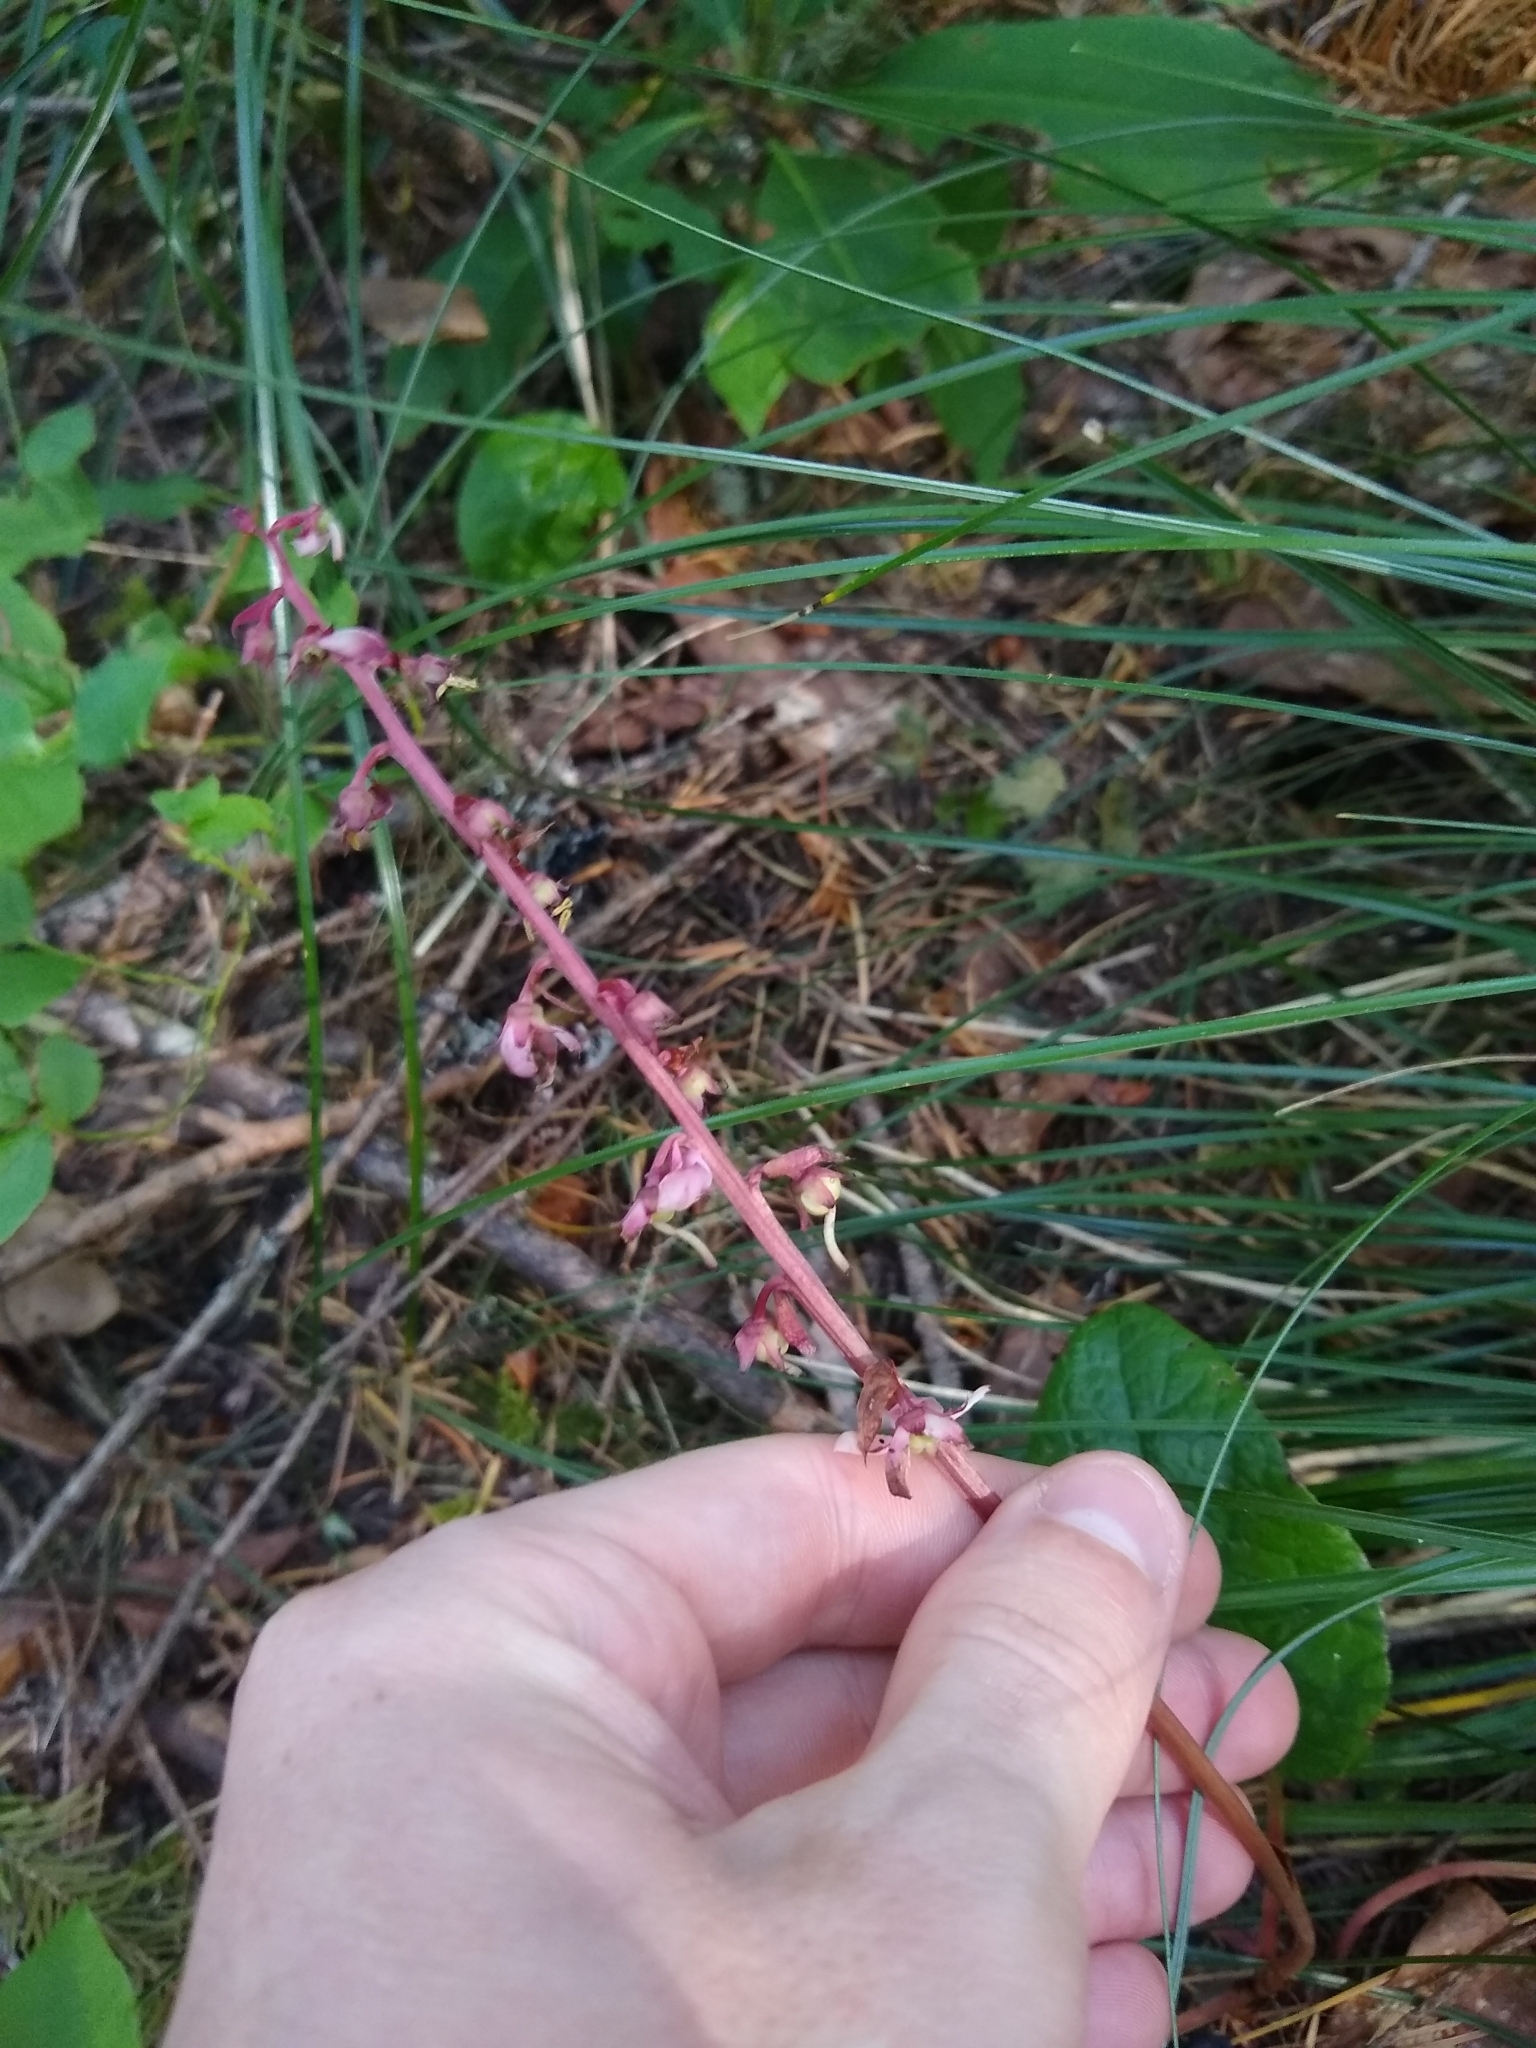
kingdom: Plantae
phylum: Tracheophyta
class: Magnoliopsida
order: Ericales
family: Ericaceae
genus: Pyrola
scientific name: Pyrola asarifolia
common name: Bog wintergreen
